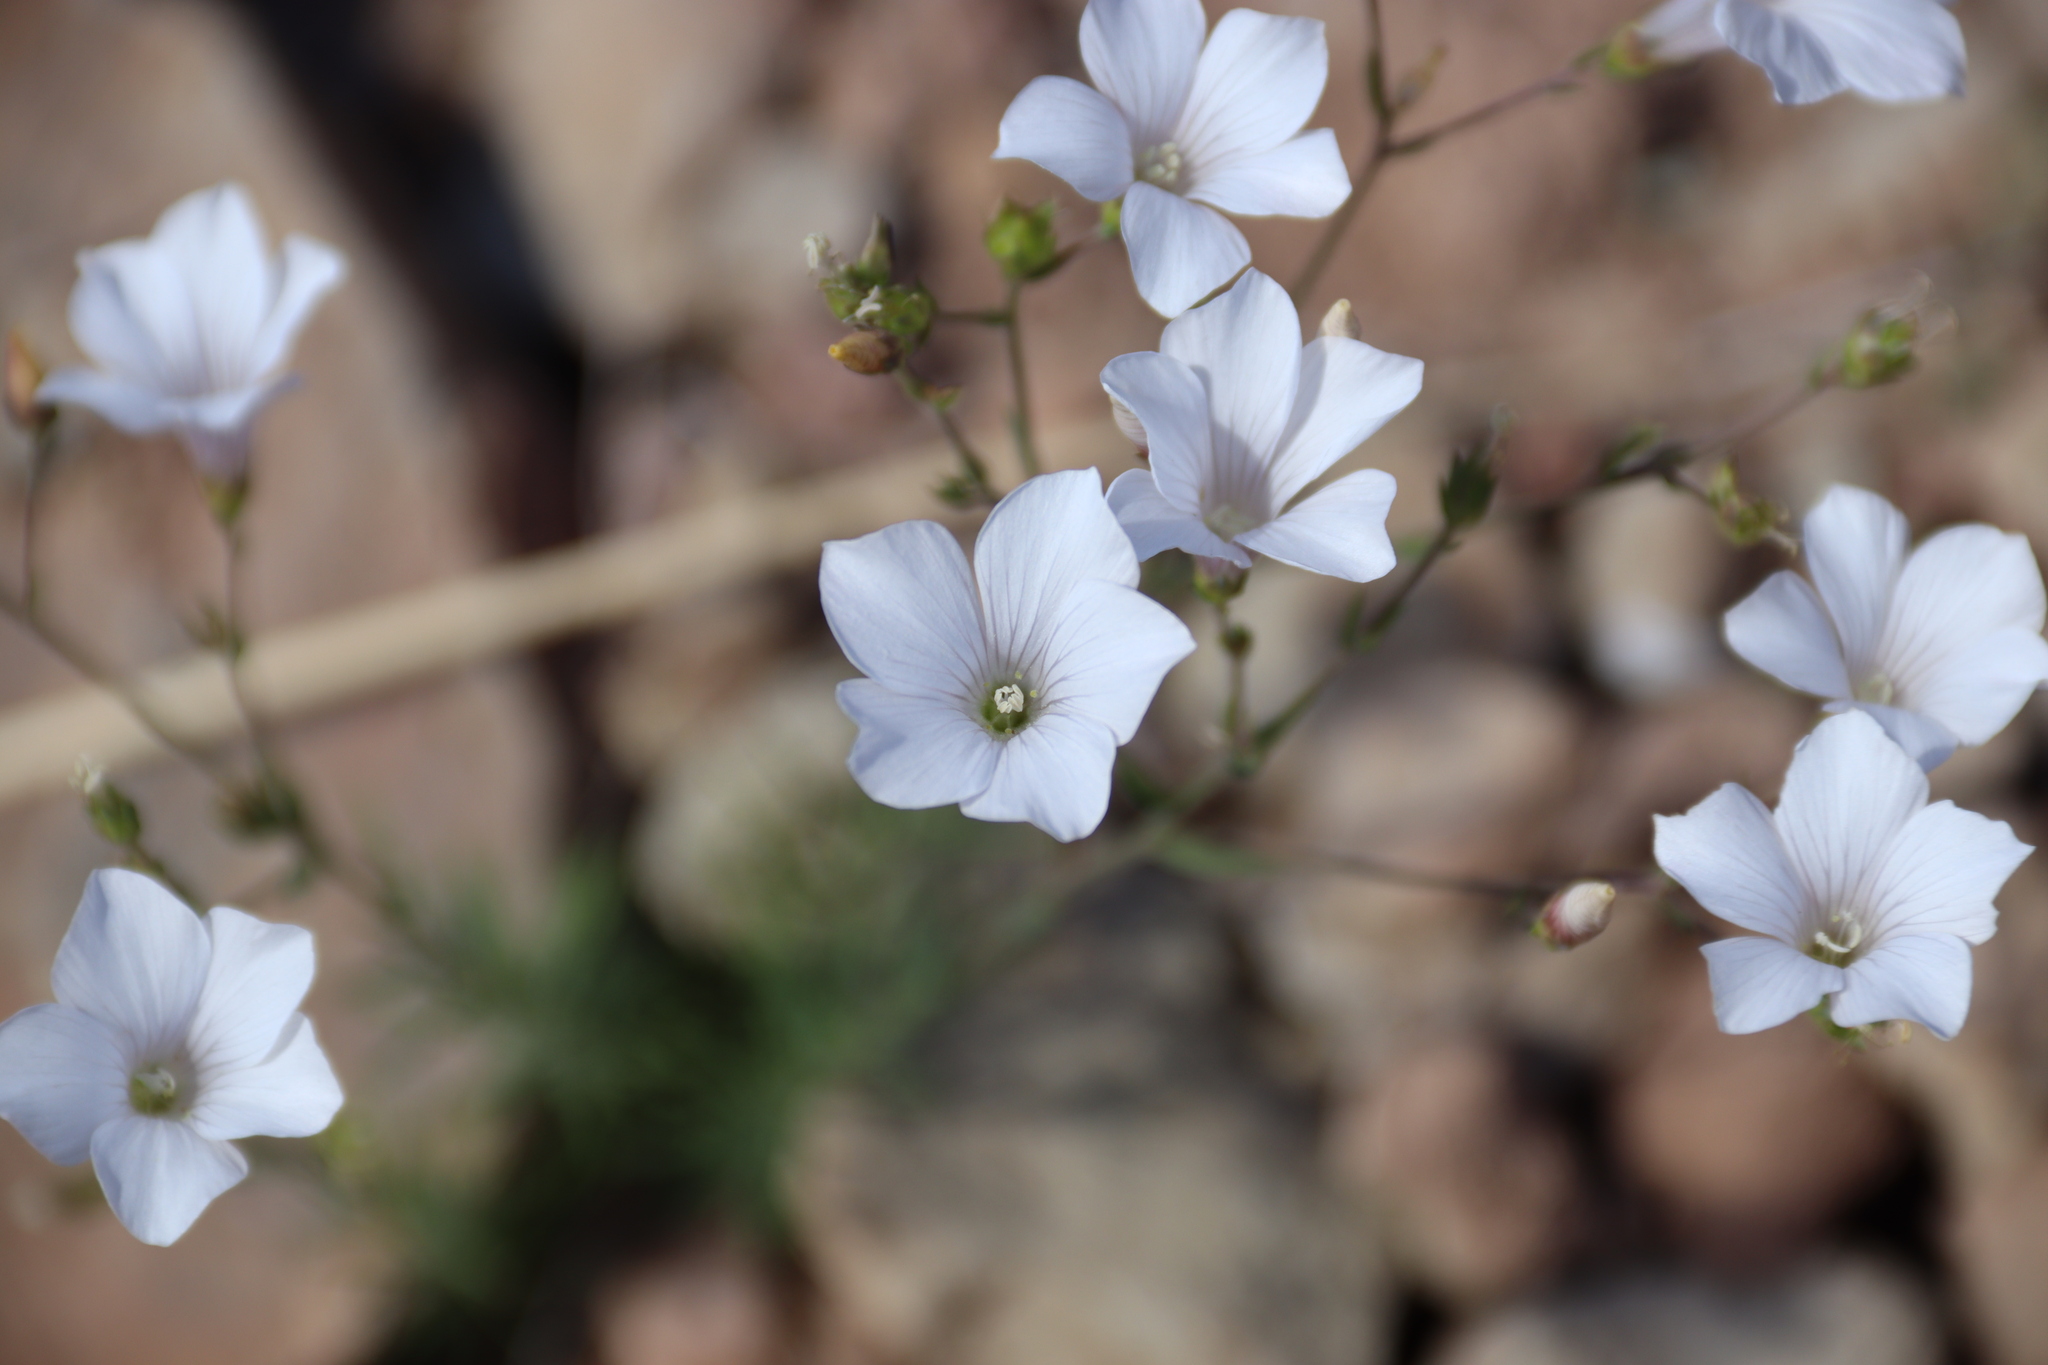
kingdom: Plantae
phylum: Tracheophyta
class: Magnoliopsida
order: Malpighiales
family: Linaceae
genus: Linum
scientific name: Linum tenuifolium
